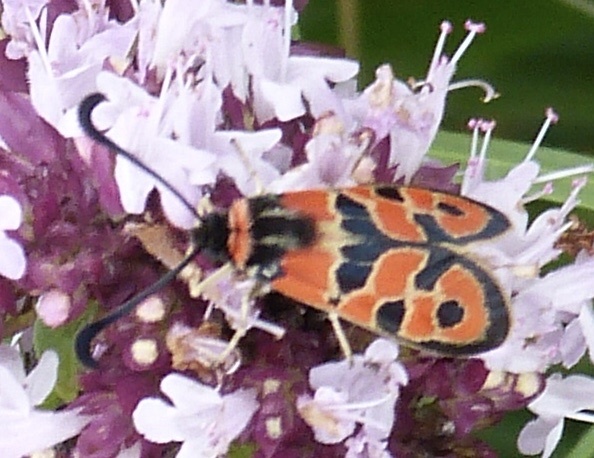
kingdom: Animalia
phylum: Arthropoda
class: Insecta
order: Lepidoptera
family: Zygaenidae
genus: Zygaena
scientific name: Zygaena fausta
